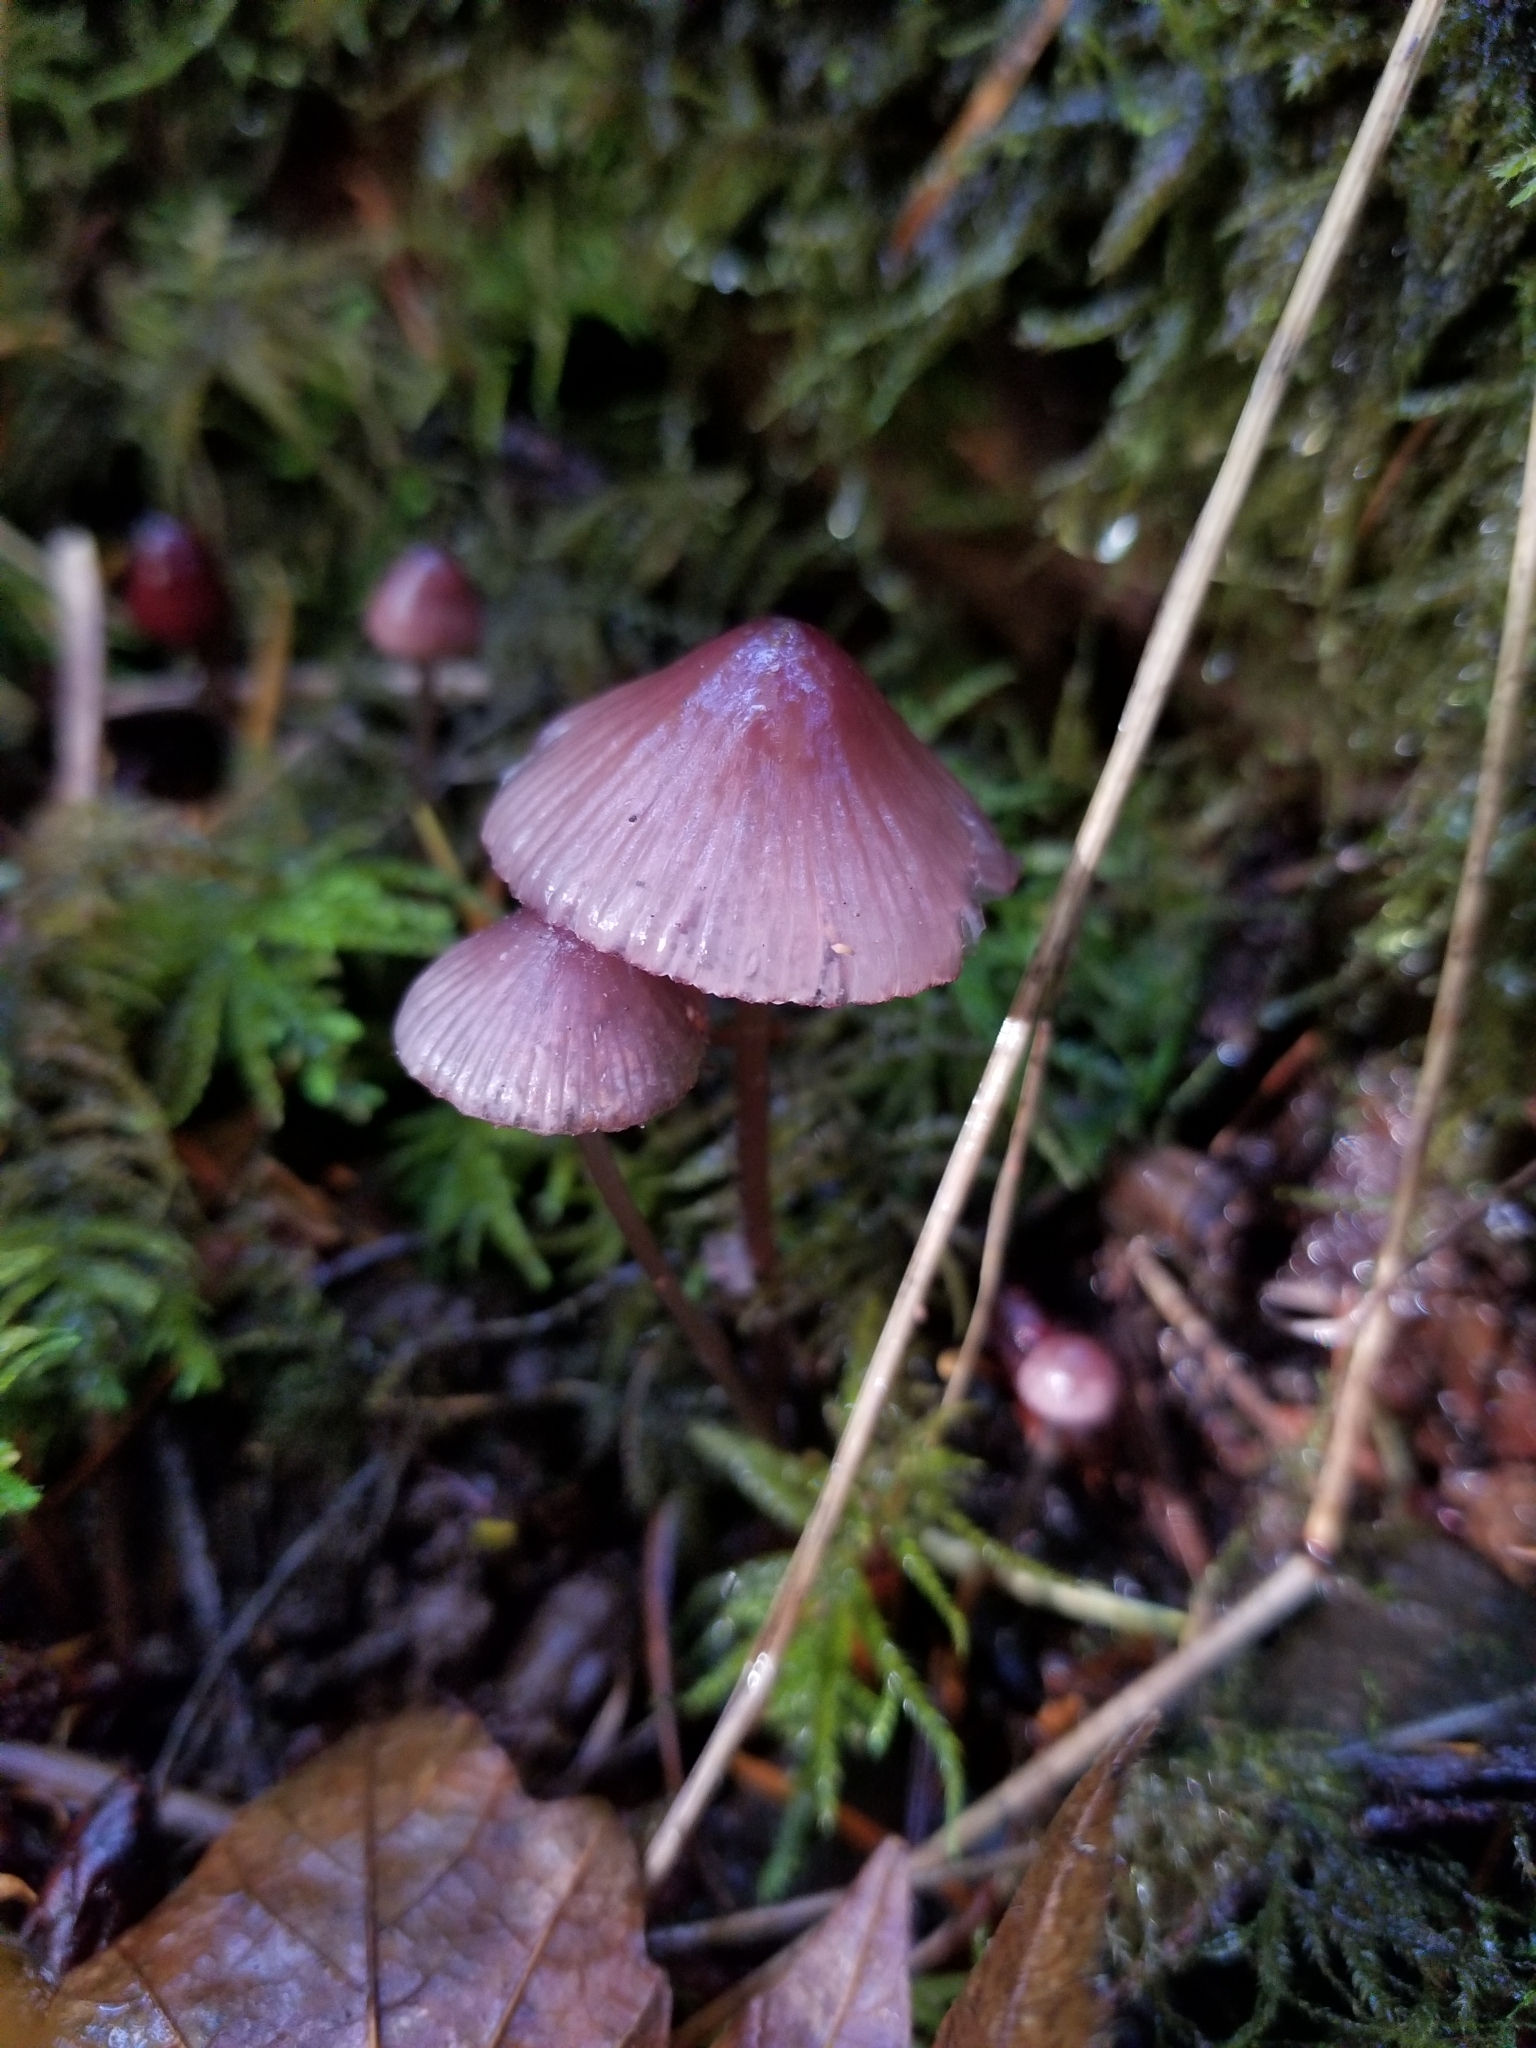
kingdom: Fungi
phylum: Basidiomycota
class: Agaricomycetes
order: Agaricales
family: Mycenaceae
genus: Mycena
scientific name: Mycena haematopus
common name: Burgundydrop bonnet
